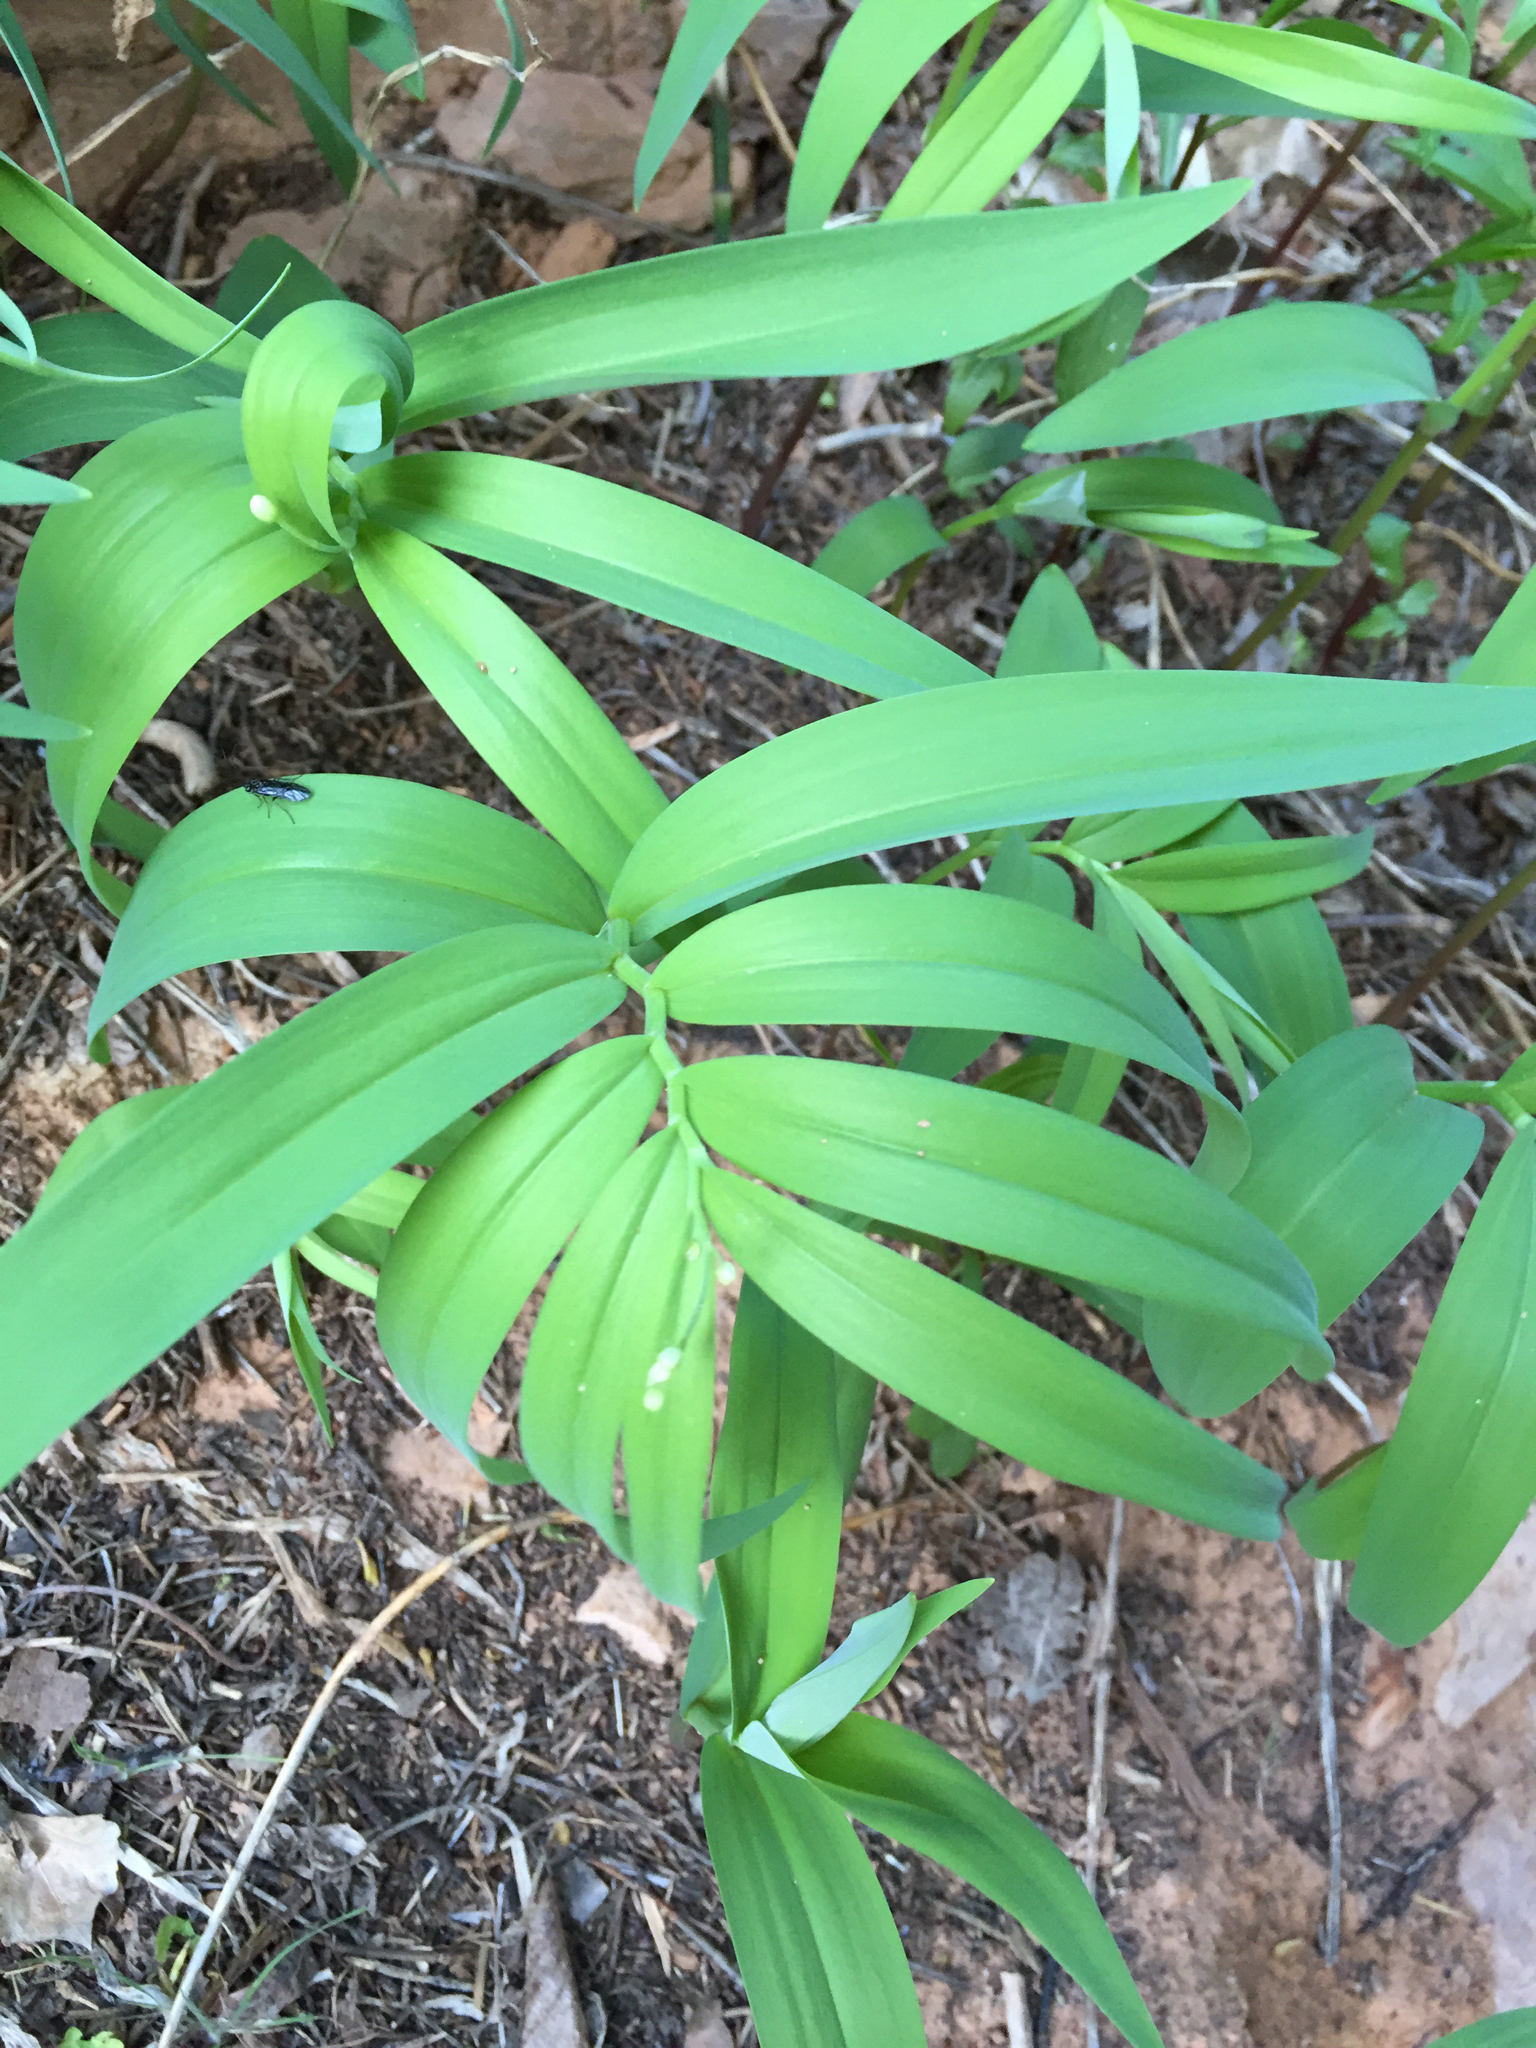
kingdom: Plantae
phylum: Tracheophyta
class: Liliopsida
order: Asparagales
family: Asparagaceae
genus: Maianthemum
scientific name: Maianthemum stellatum
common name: Little false solomon's seal
